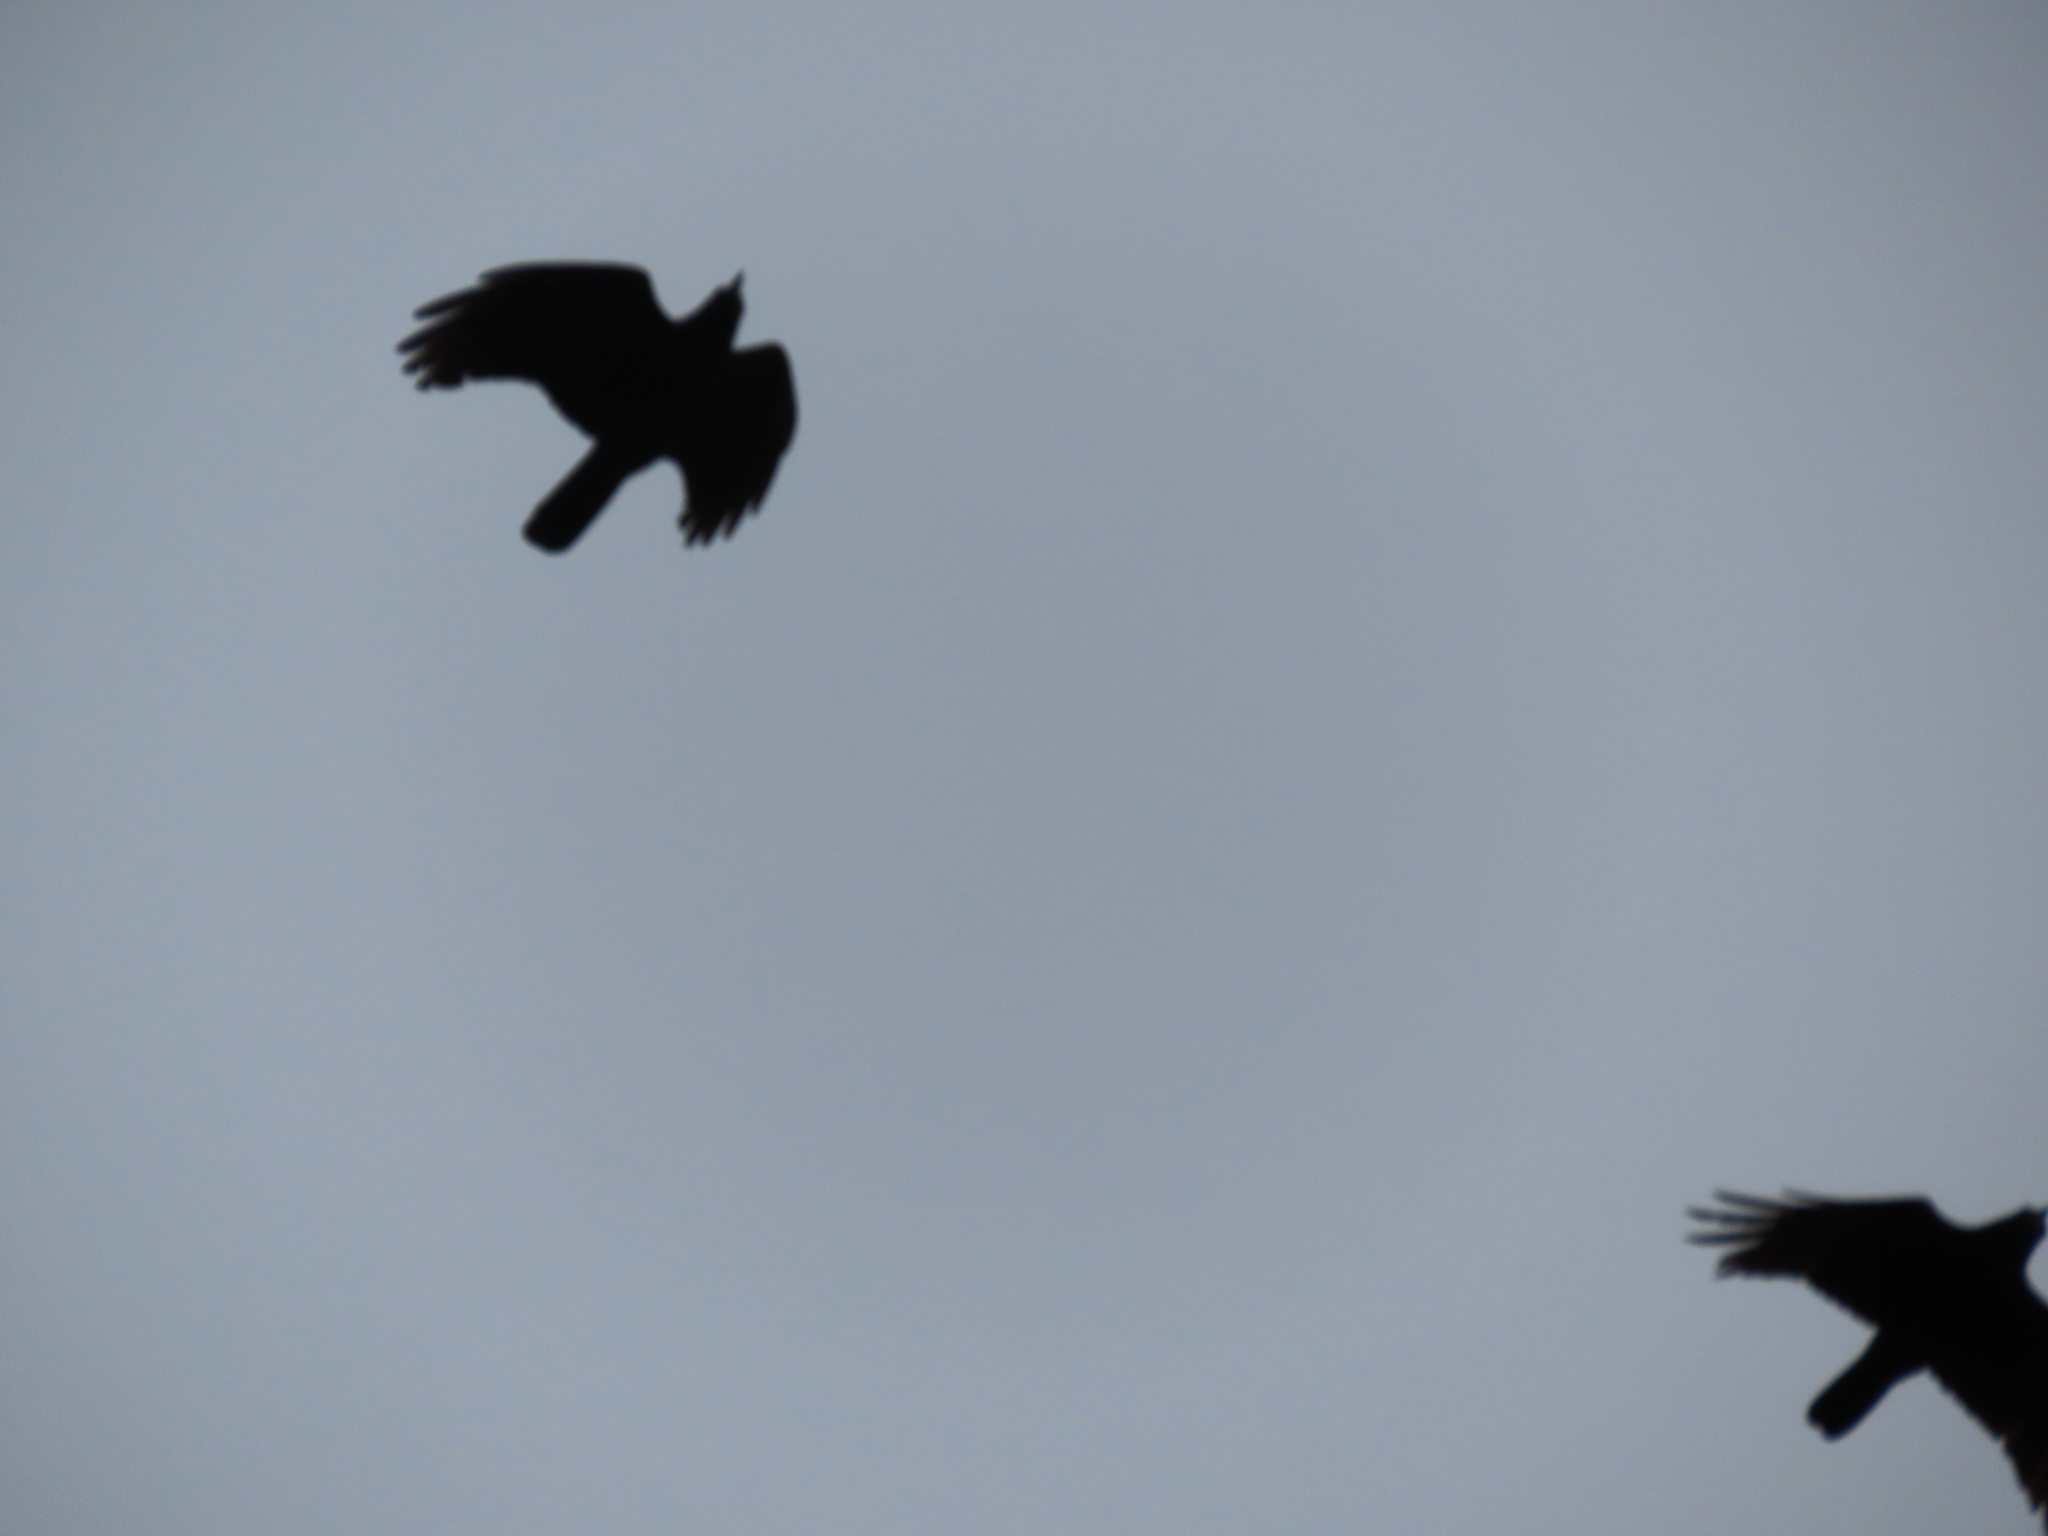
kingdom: Animalia
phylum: Chordata
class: Aves
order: Passeriformes
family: Corvidae
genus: Corvus
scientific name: Corvus brachyrhynchos
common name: American crow
